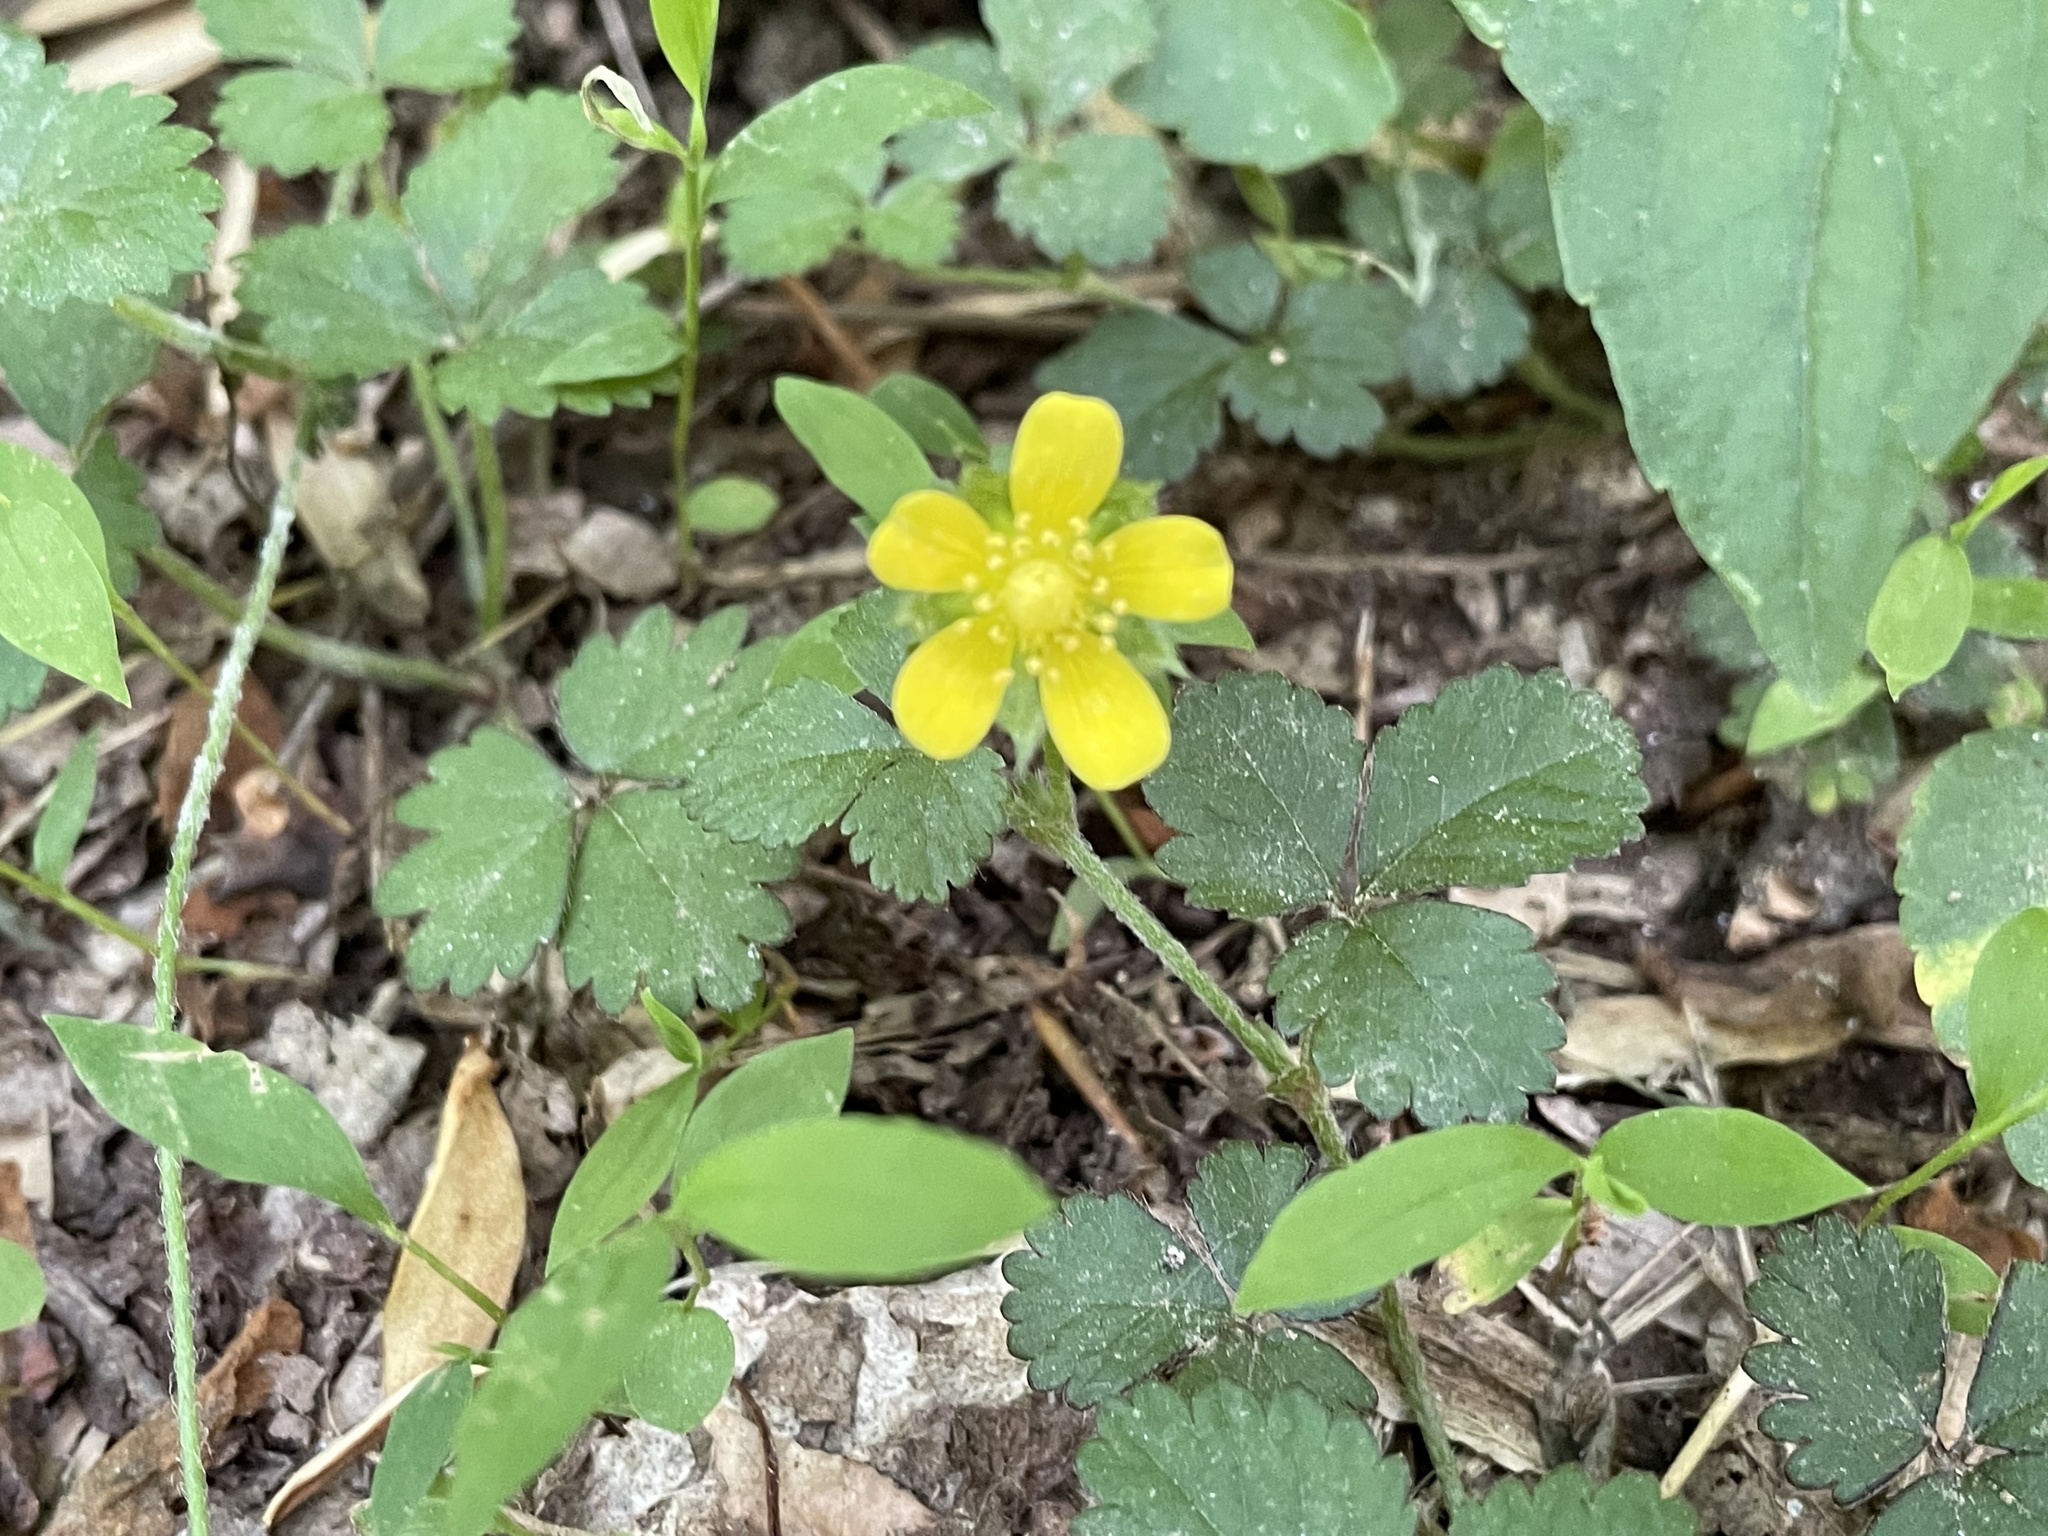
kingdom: Plantae
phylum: Tracheophyta
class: Magnoliopsida
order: Rosales
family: Rosaceae
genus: Potentilla
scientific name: Potentilla indica
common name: Yellow-flowered strawberry
